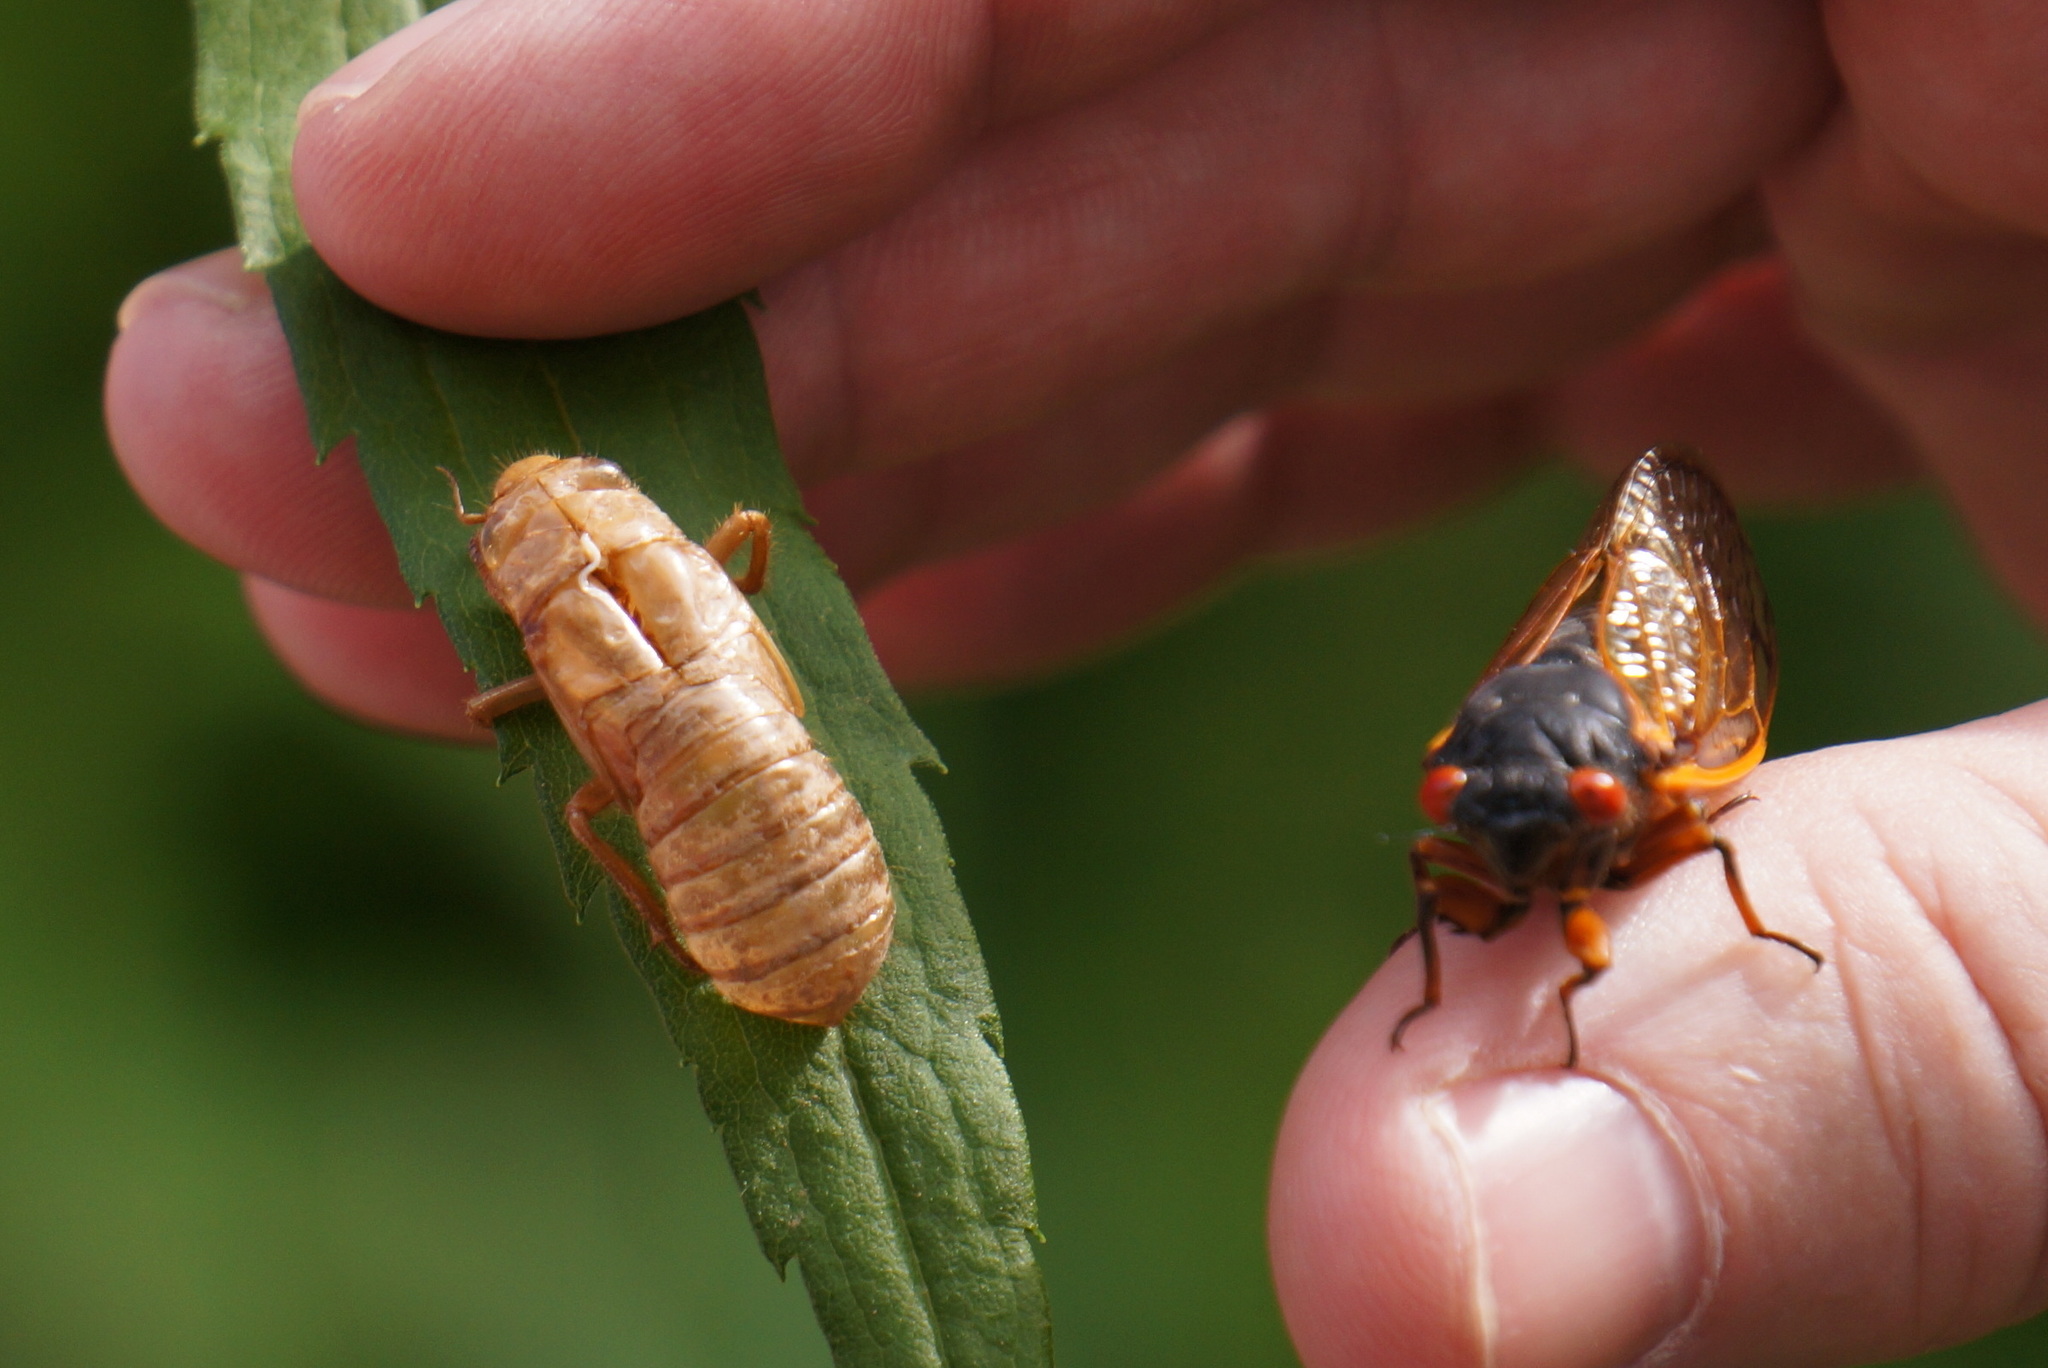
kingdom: Animalia
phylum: Arthropoda
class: Insecta
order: Hemiptera
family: Cicadidae
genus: Magicicada
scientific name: Magicicada septendecim
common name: Periodical cicada
